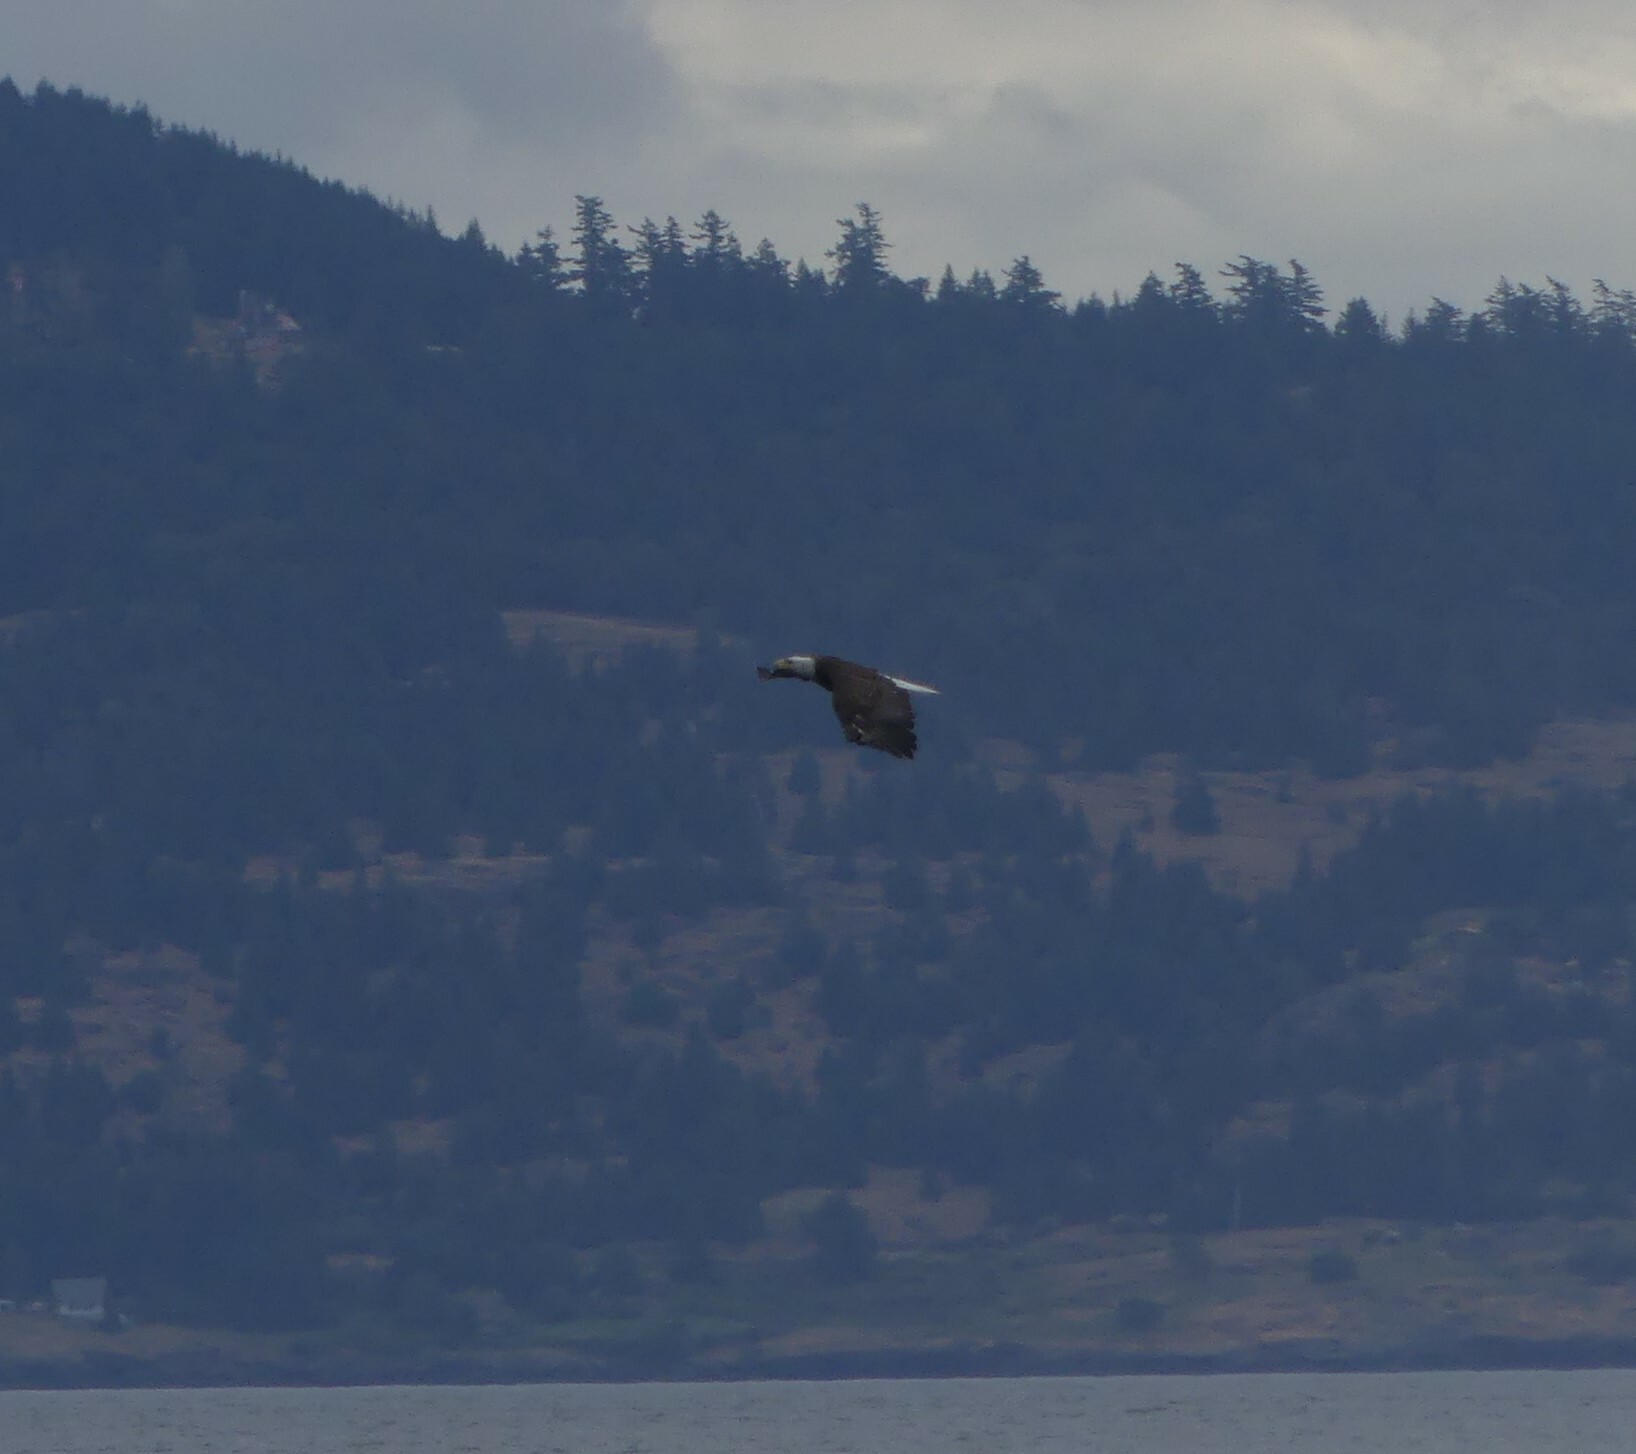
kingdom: Animalia
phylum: Chordata
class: Aves
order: Accipitriformes
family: Accipitridae
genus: Haliaeetus
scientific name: Haliaeetus leucocephalus
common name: Bald eagle
